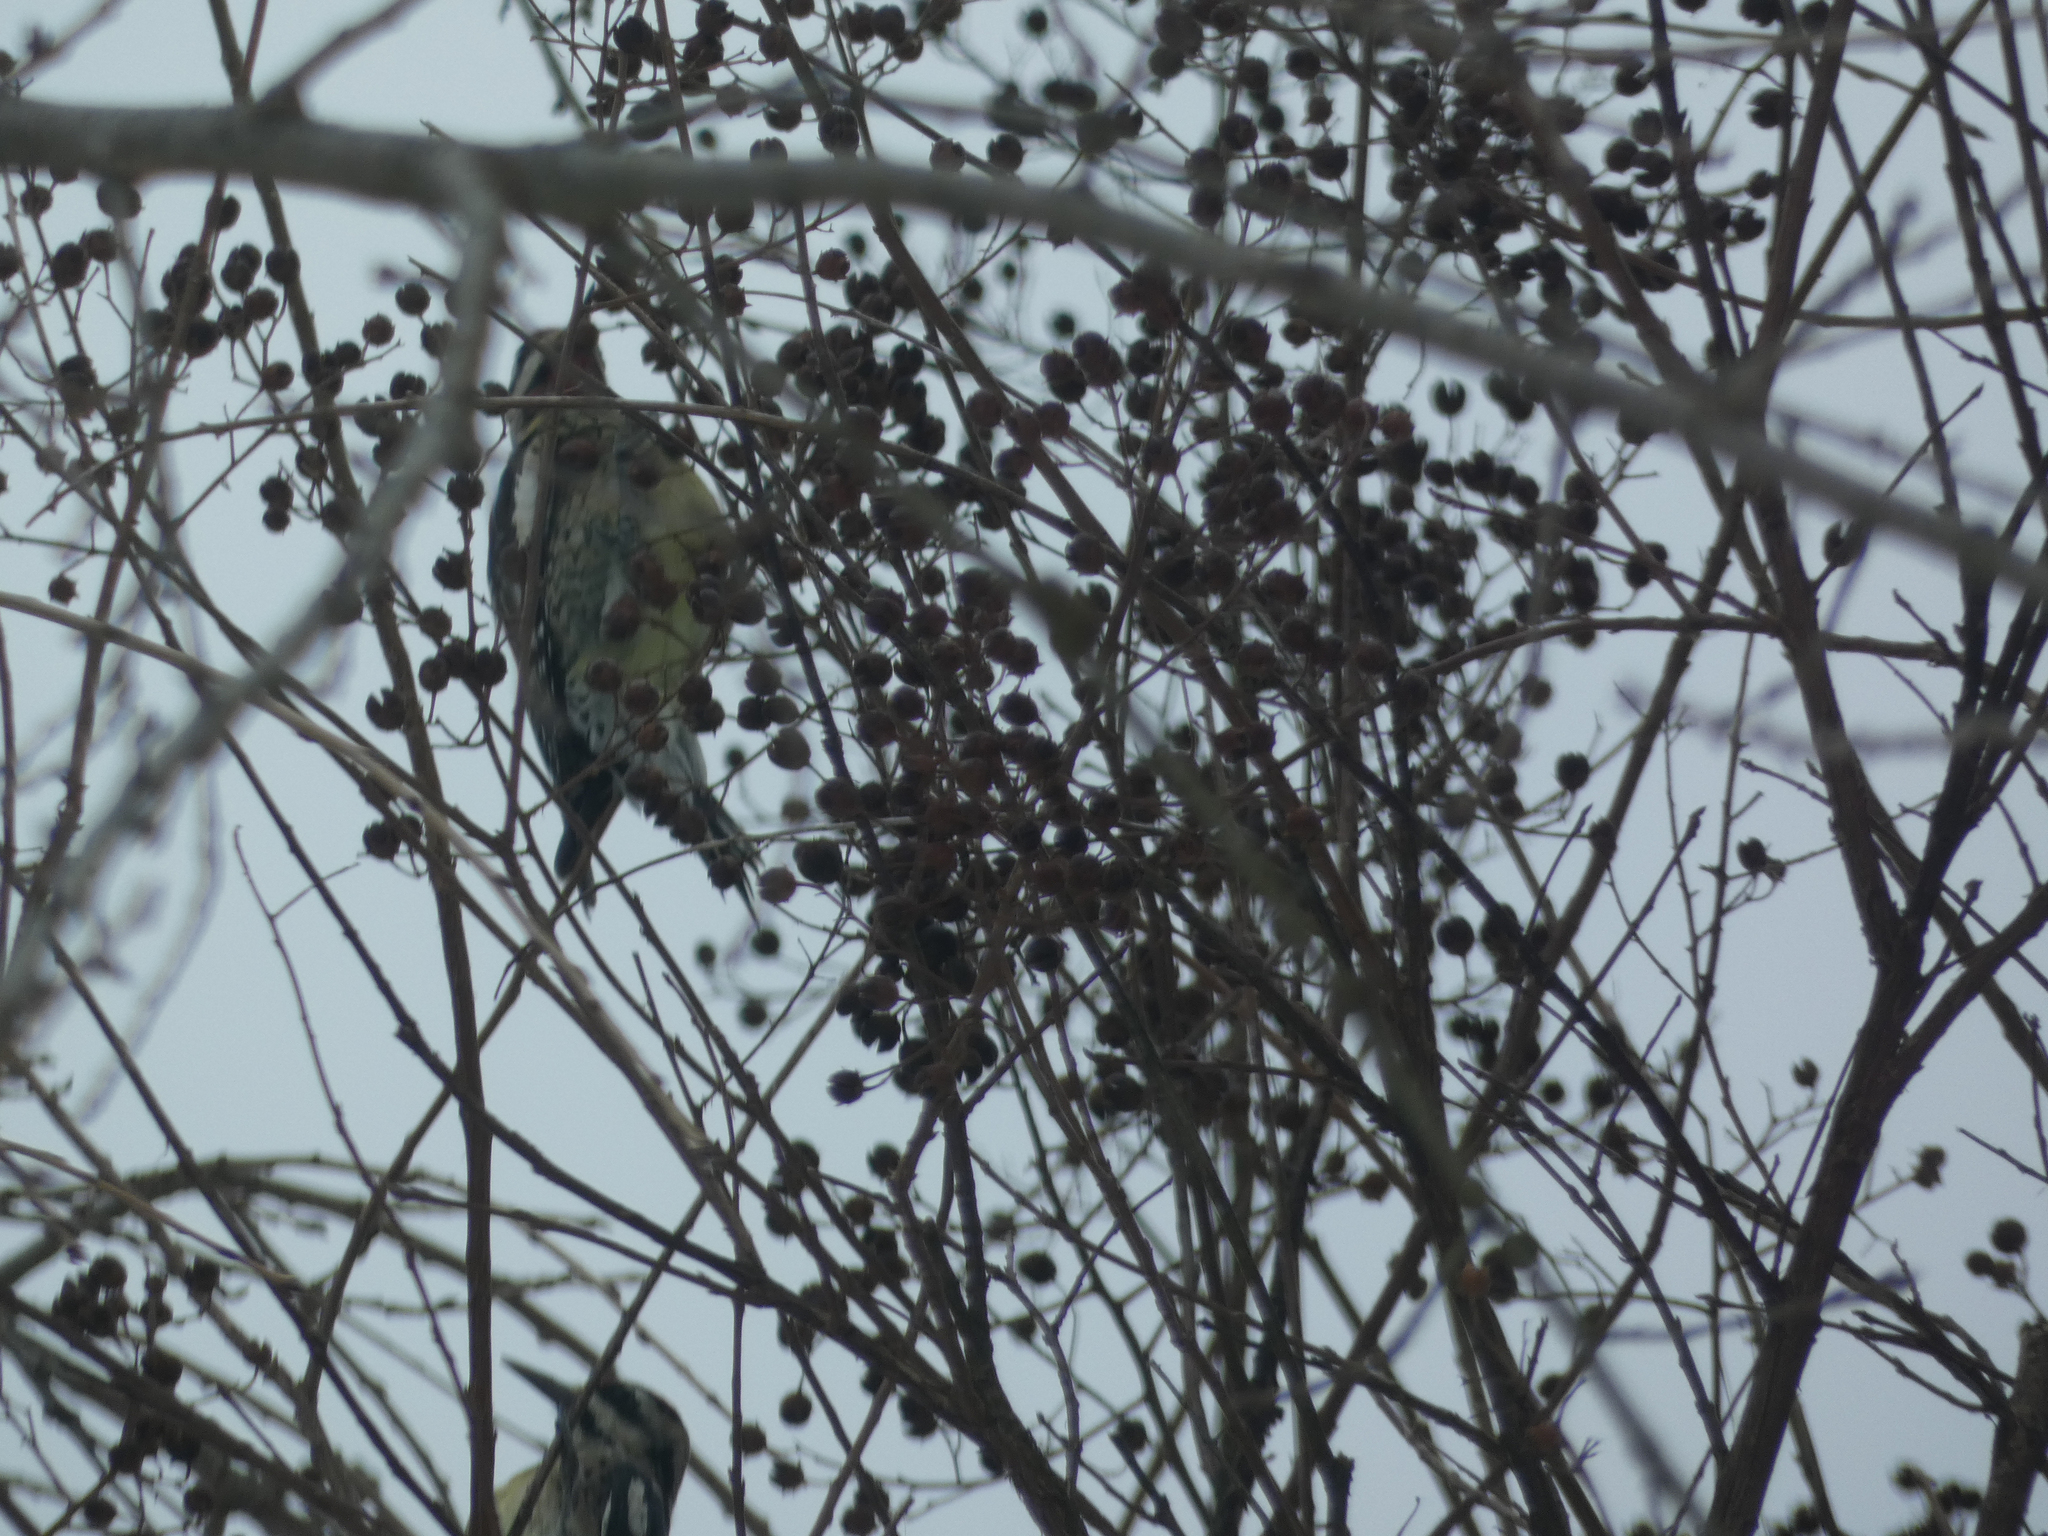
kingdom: Animalia
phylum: Chordata
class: Aves
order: Piciformes
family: Picidae
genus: Sphyrapicus
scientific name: Sphyrapicus varius
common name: Yellow-bellied sapsucker
